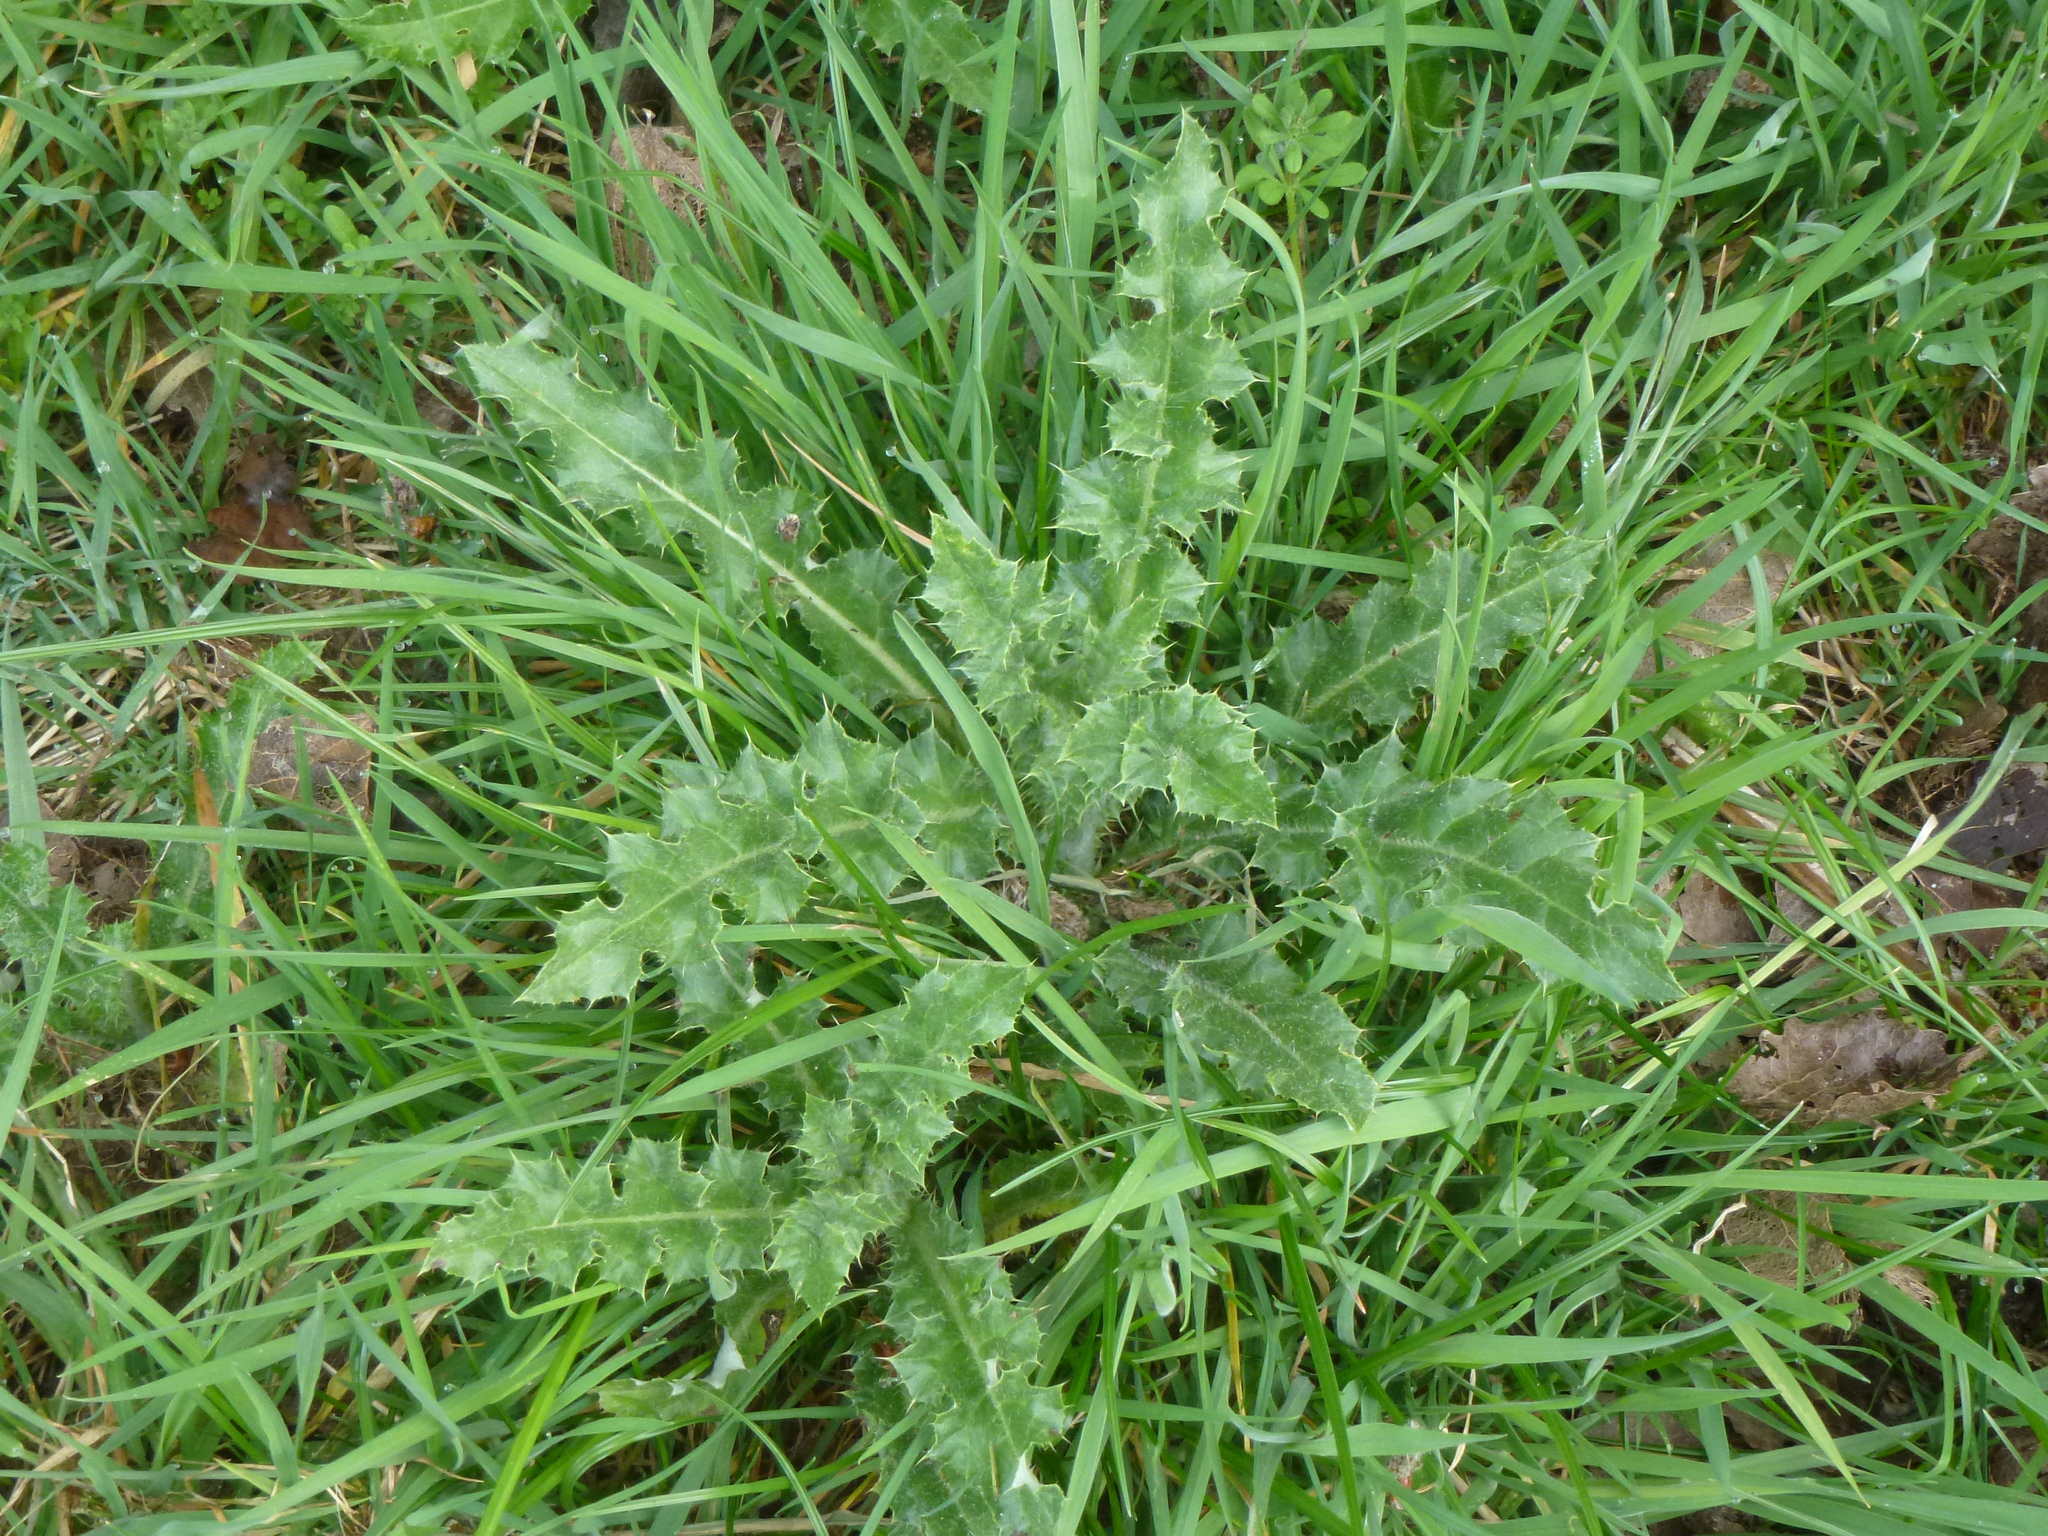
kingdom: Plantae
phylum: Tracheophyta
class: Magnoliopsida
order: Asterales
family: Asteraceae
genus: Cirsium
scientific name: Cirsium arvense
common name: Creeping thistle
